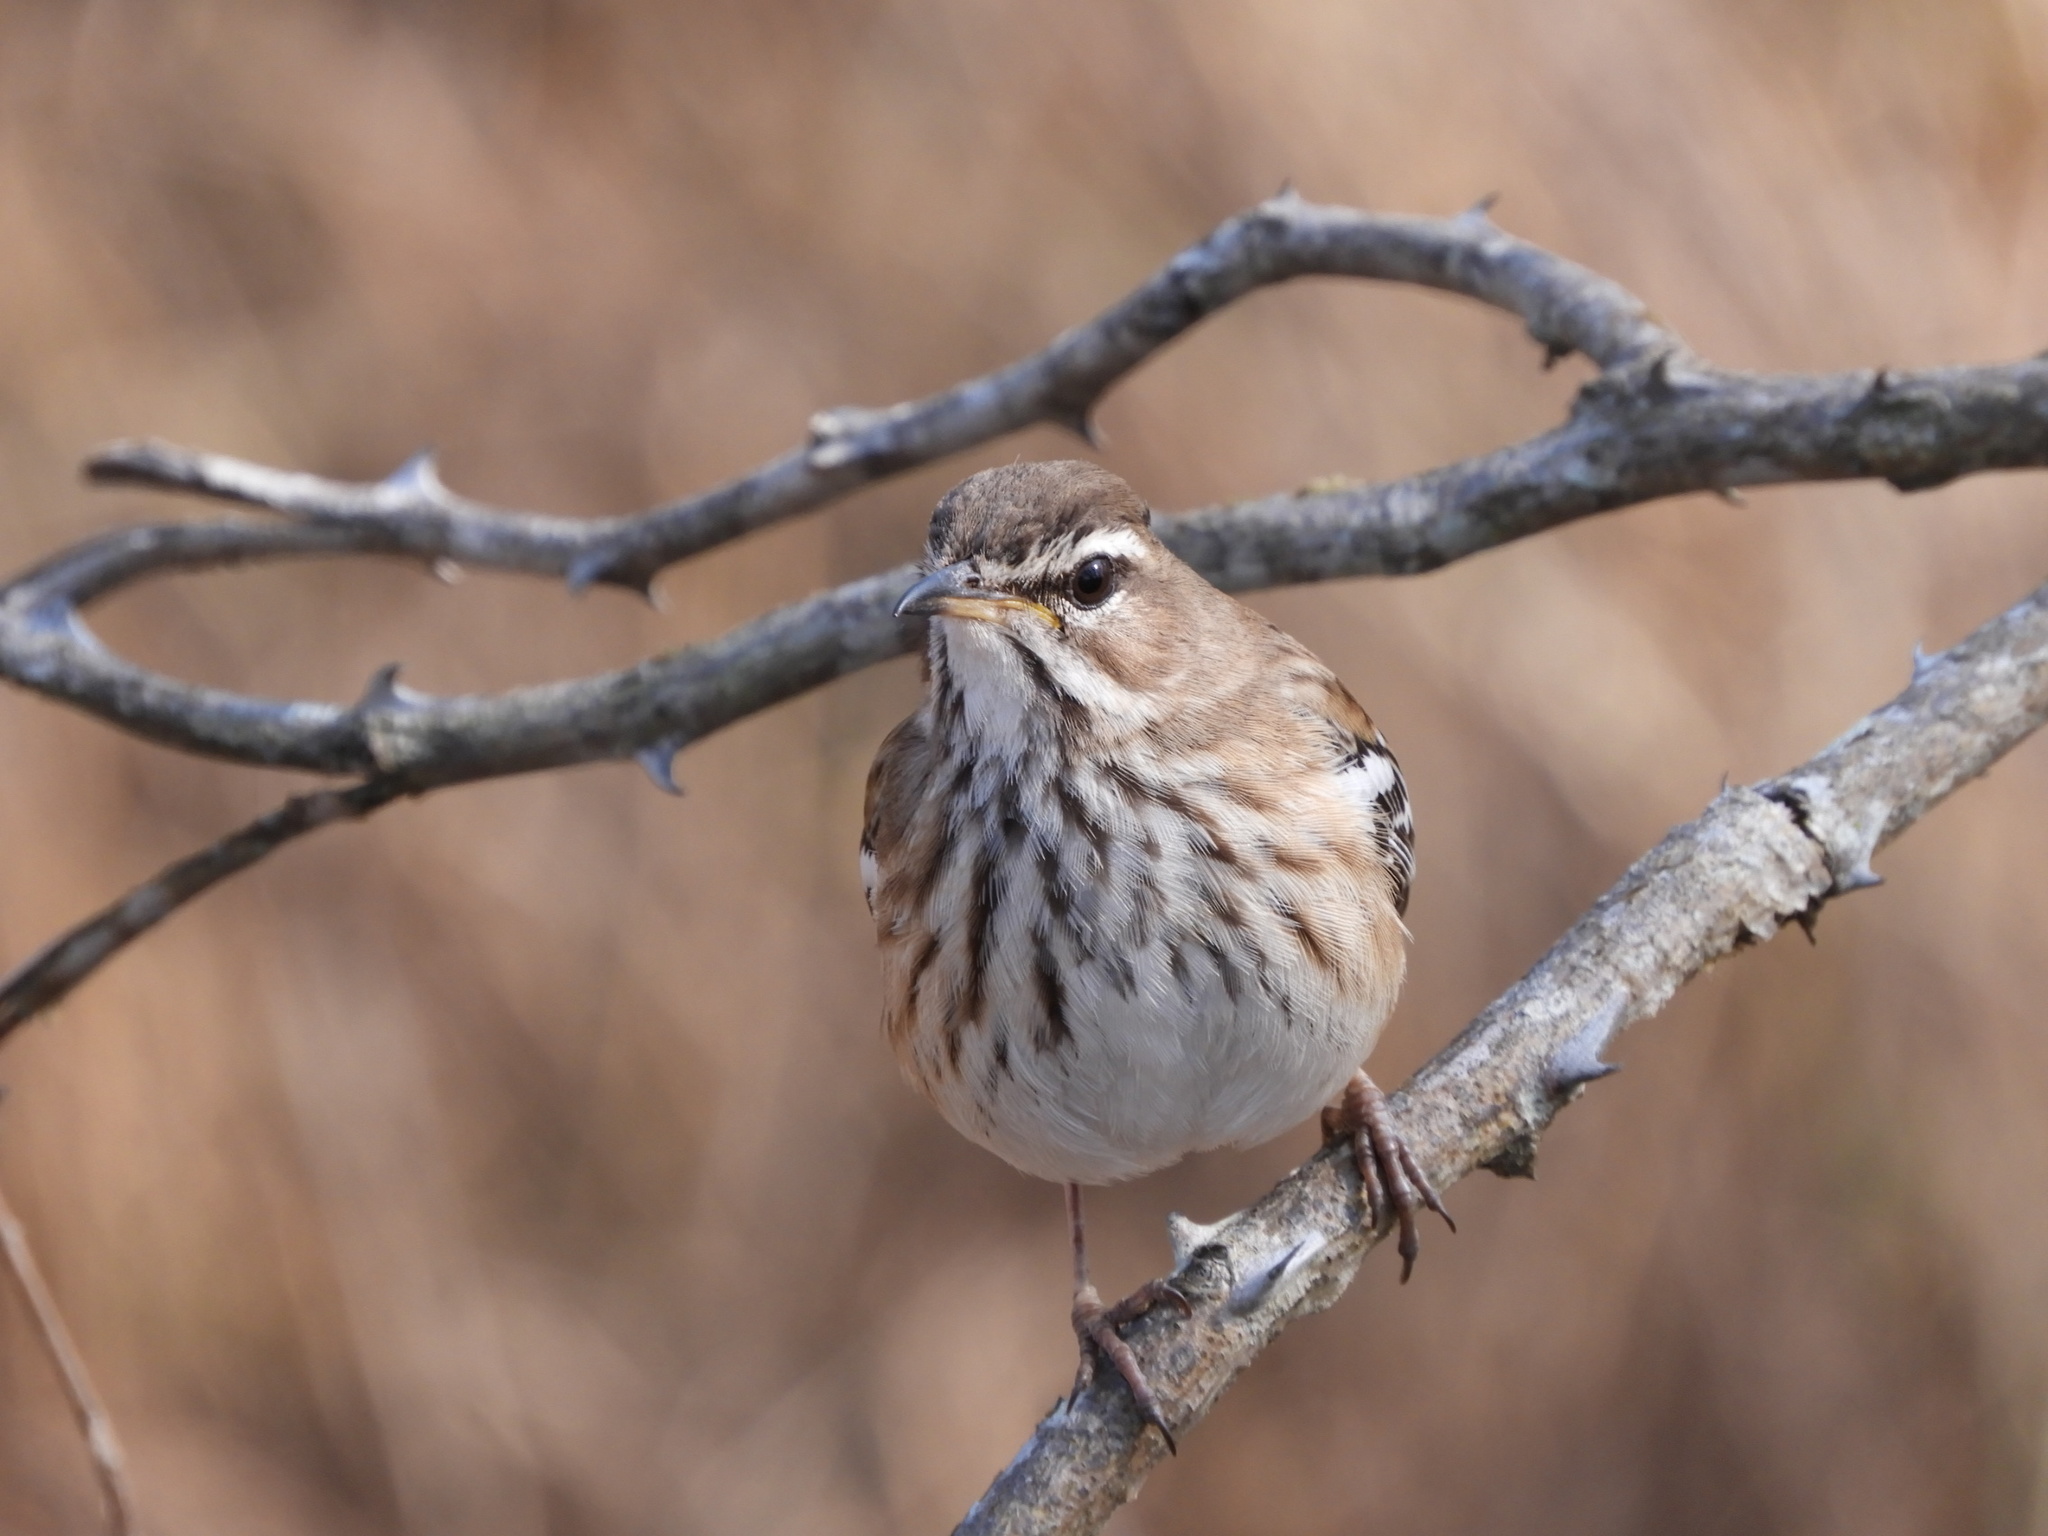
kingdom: Animalia
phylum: Chordata
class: Aves
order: Passeriformes
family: Muscicapidae
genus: Erythropygia
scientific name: Erythropygia leucophrys
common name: White-browed scrub robin
